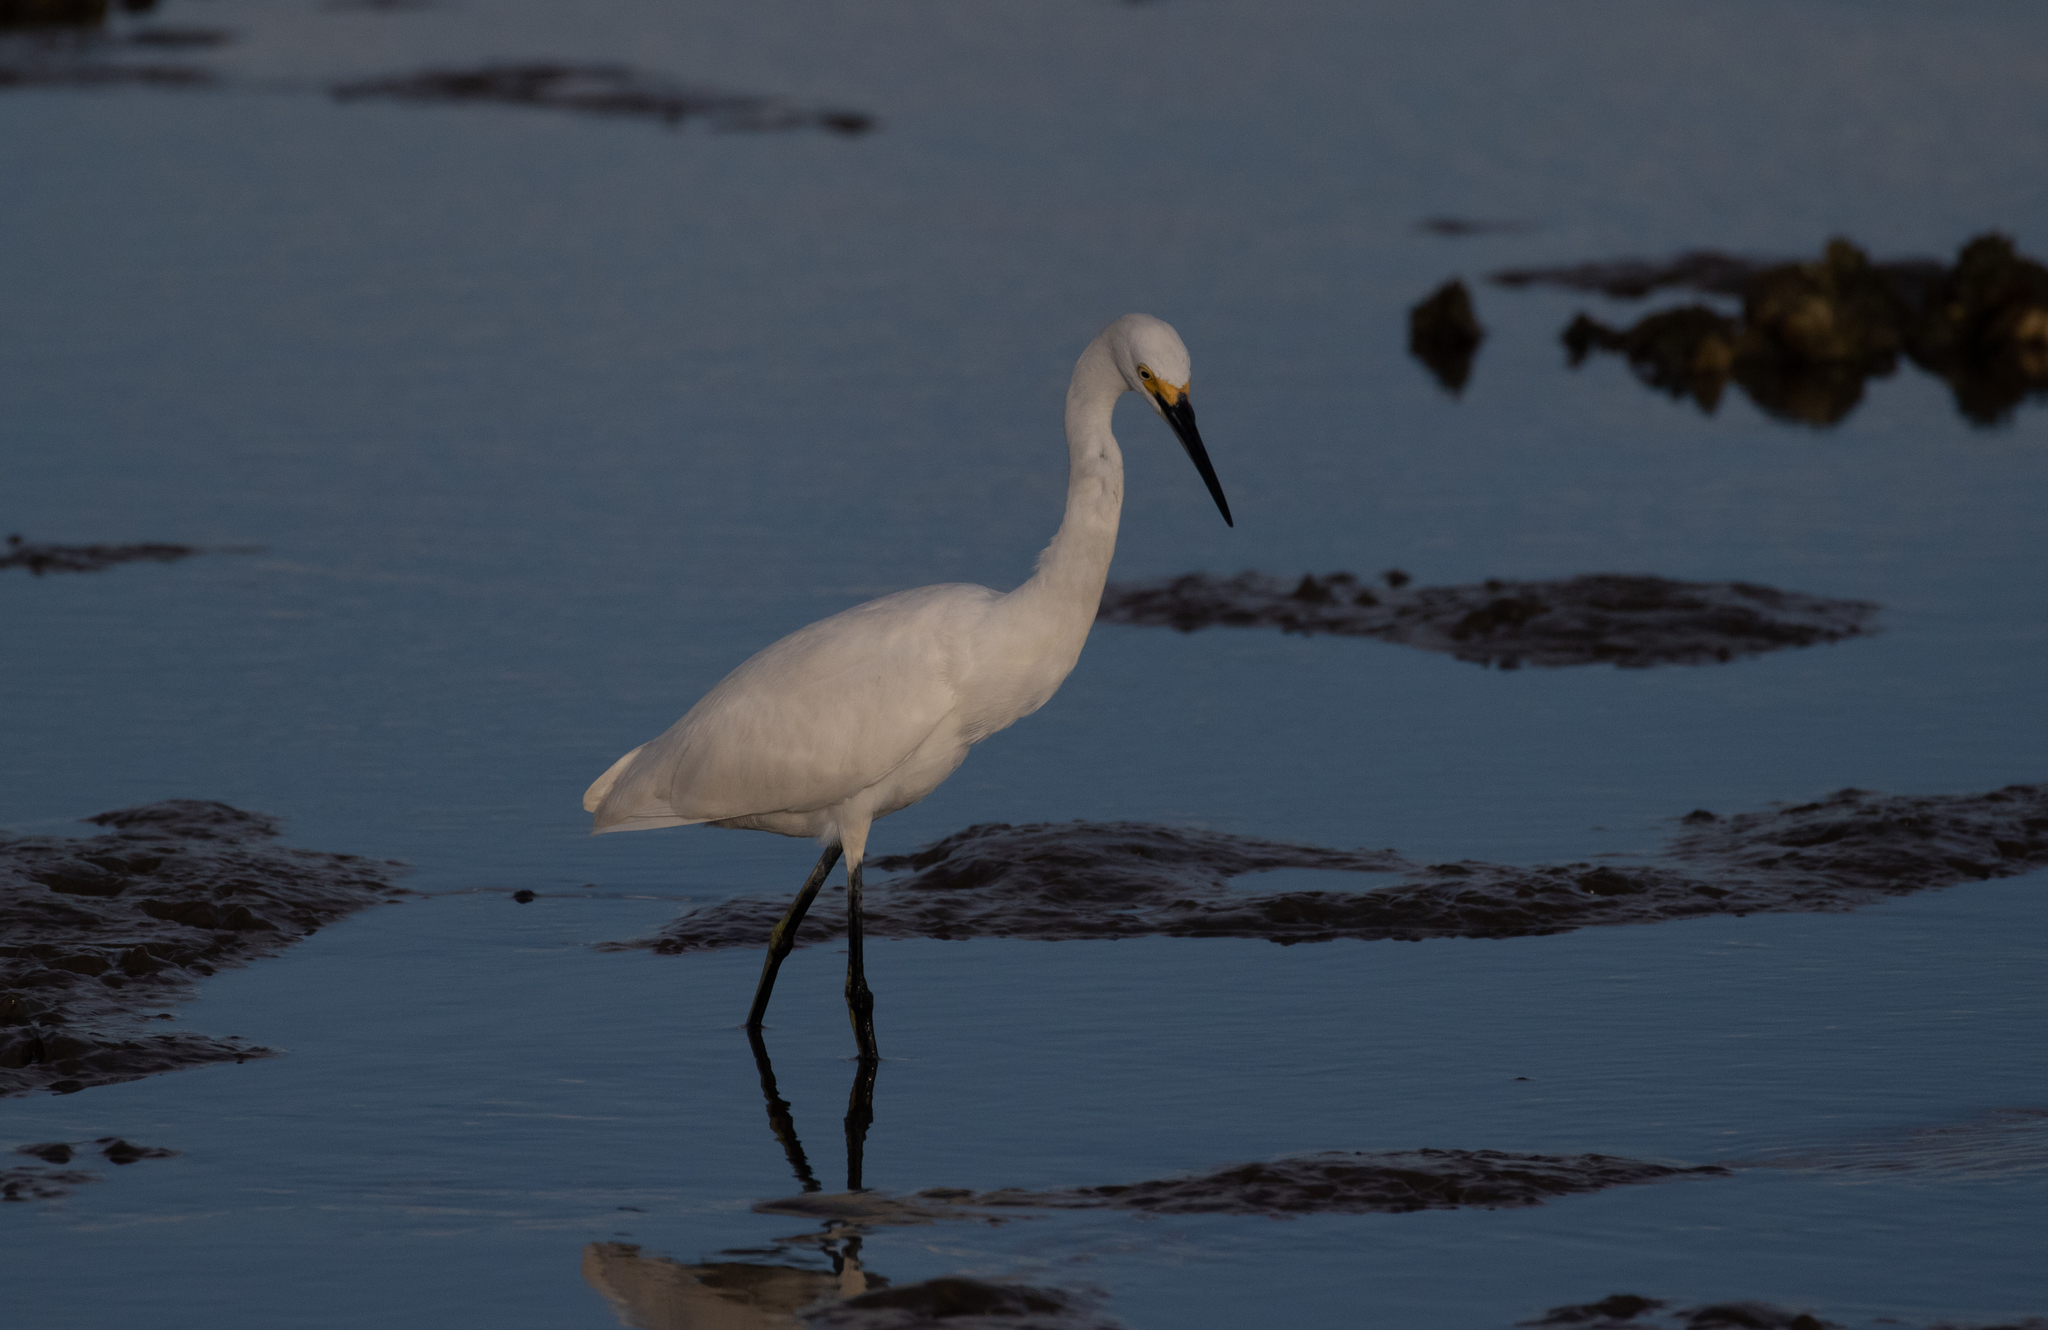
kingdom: Animalia
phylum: Chordata
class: Aves
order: Pelecaniformes
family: Ardeidae
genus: Egretta
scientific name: Egretta thula
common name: Snowy egret
